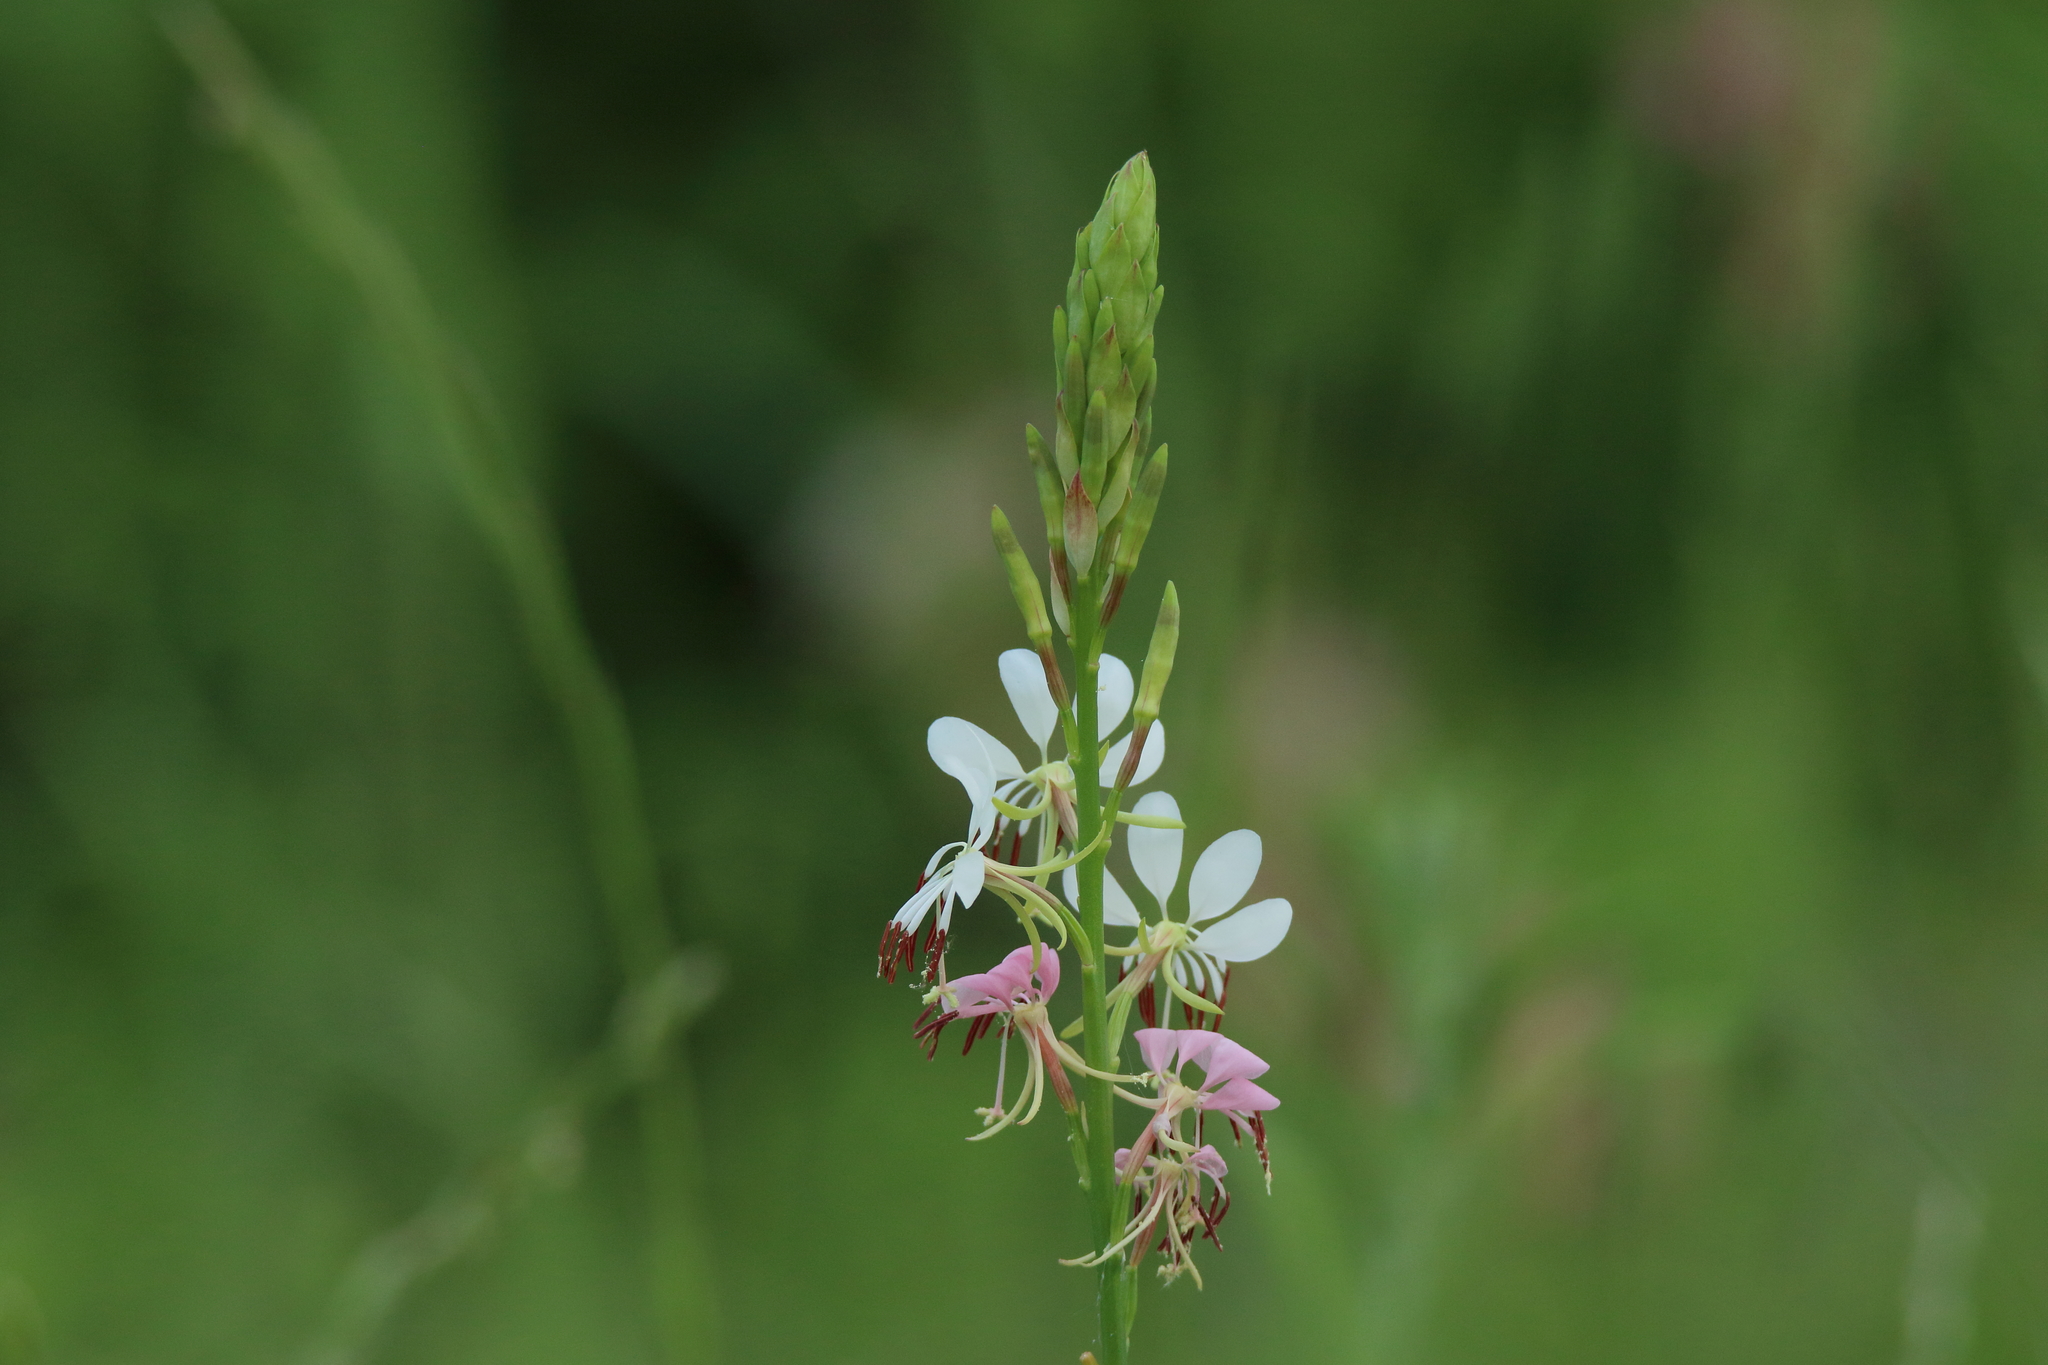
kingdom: Plantae
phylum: Tracheophyta
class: Magnoliopsida
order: Myrtales
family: Onagraceae
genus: Oenothera
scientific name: Oenothera suffulta
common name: Kisses
